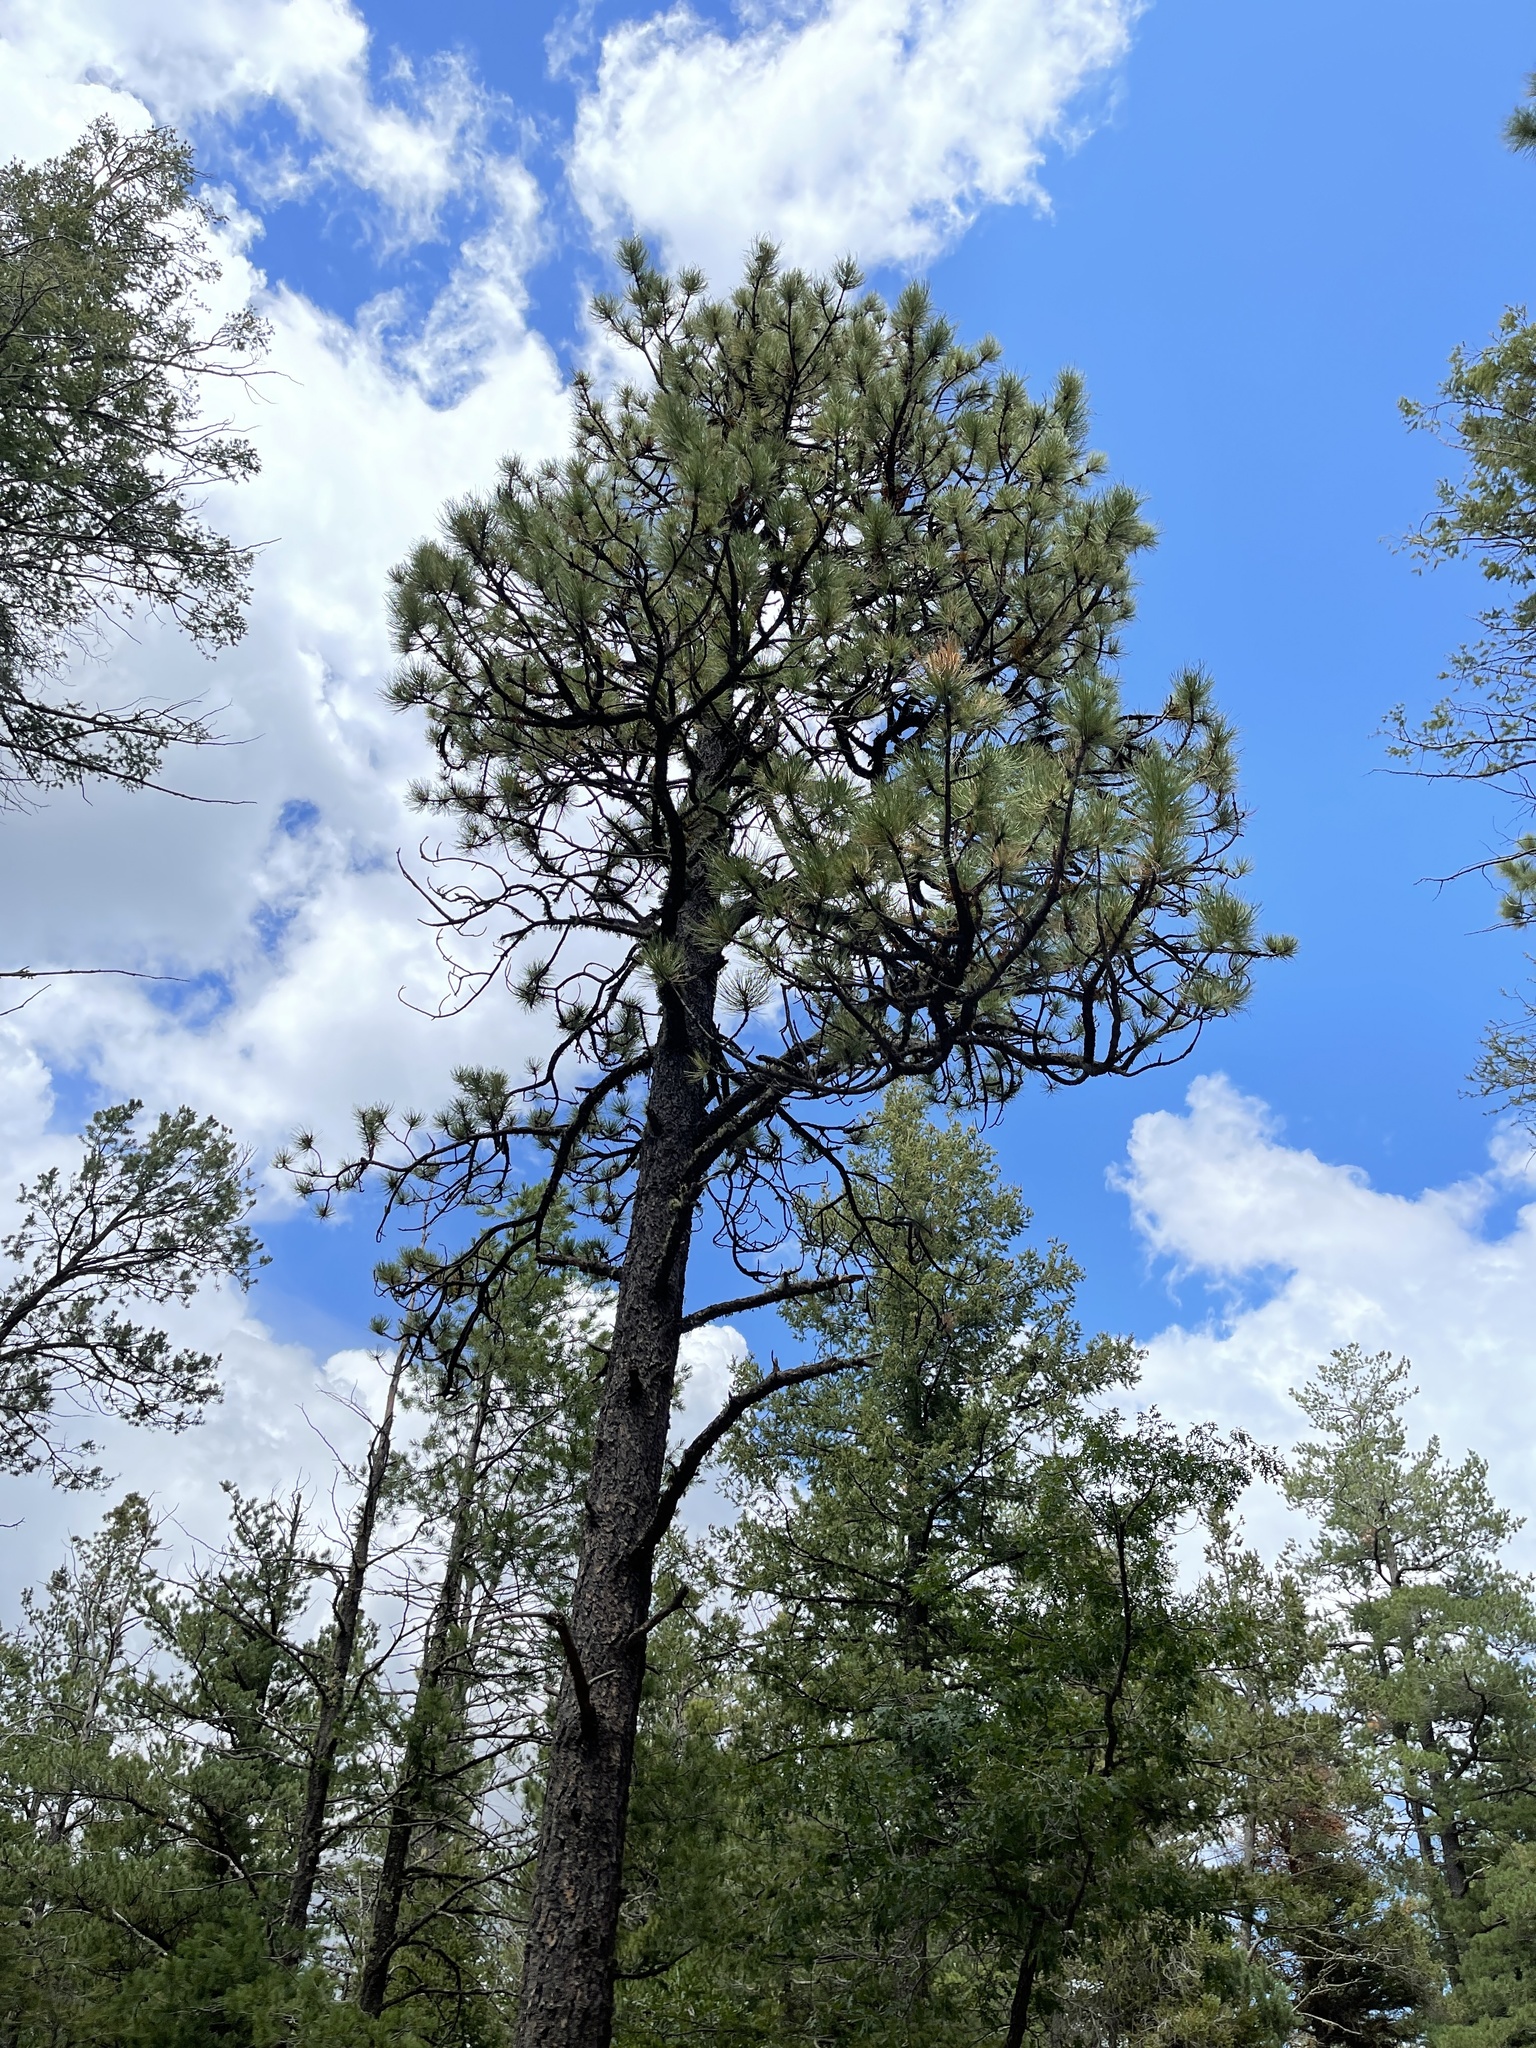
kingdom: Plantae
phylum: Tracheophyta
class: Pinopsida
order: Pinales
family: Pinaceae
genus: Pinus
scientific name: Pinus ponderosa
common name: Western yellow-pine
